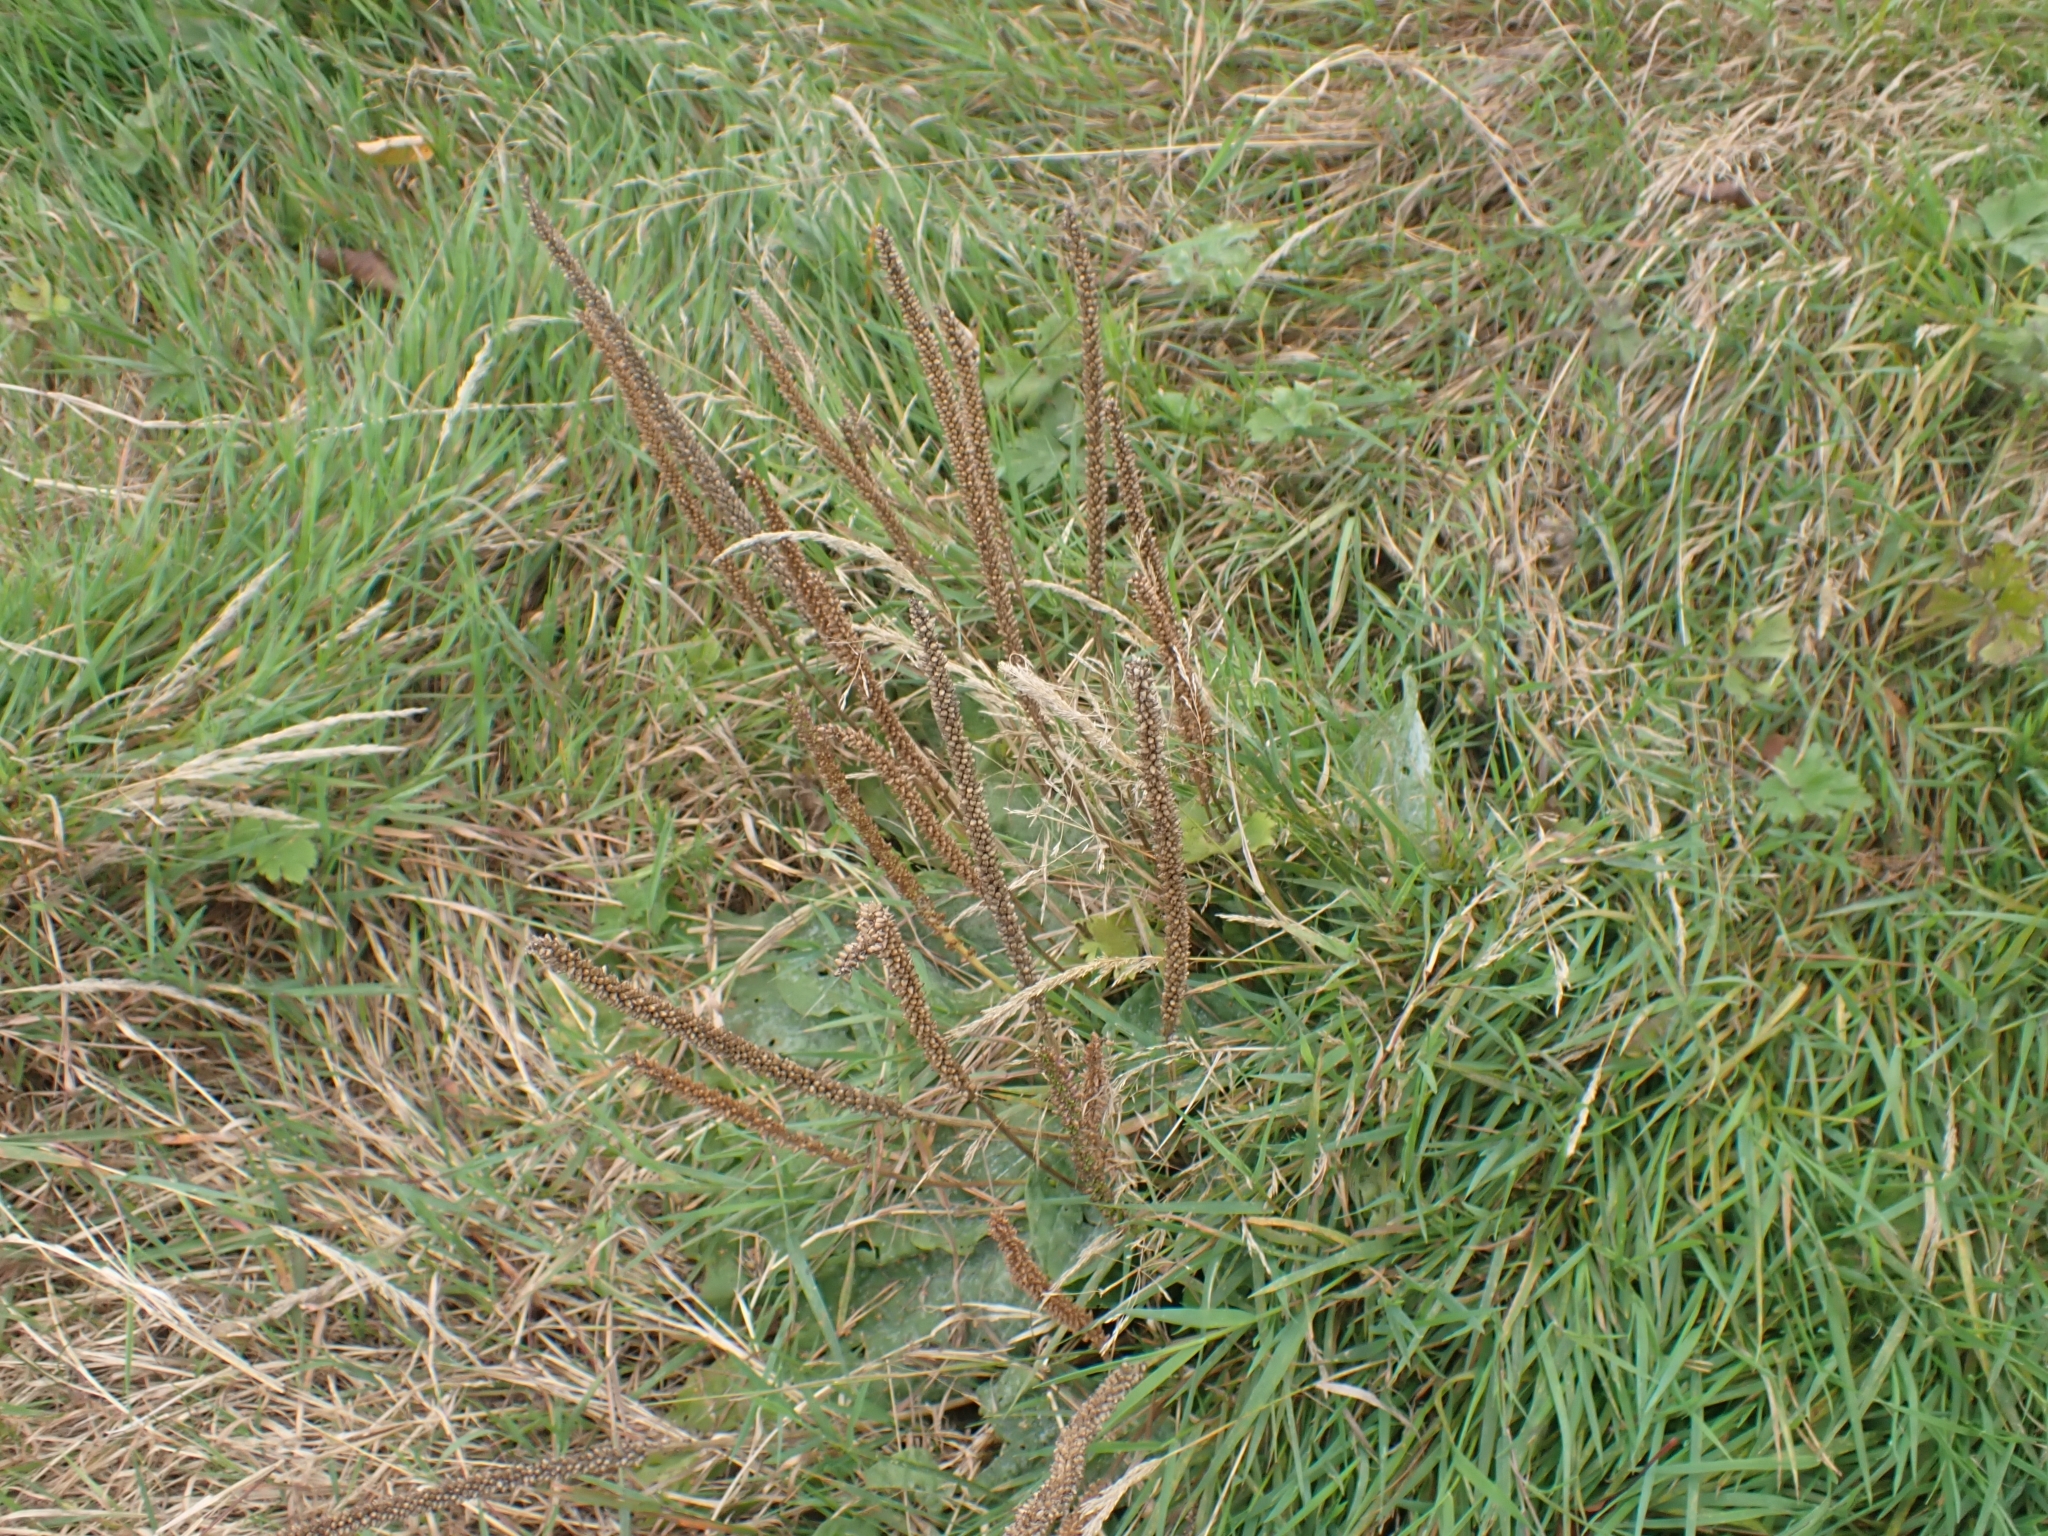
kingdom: Plantae
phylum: Tracheophyta
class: Magnoliopsida
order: Lamiales
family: Plantaginaceae
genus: Plantago
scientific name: Plantago major
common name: Common plantain
